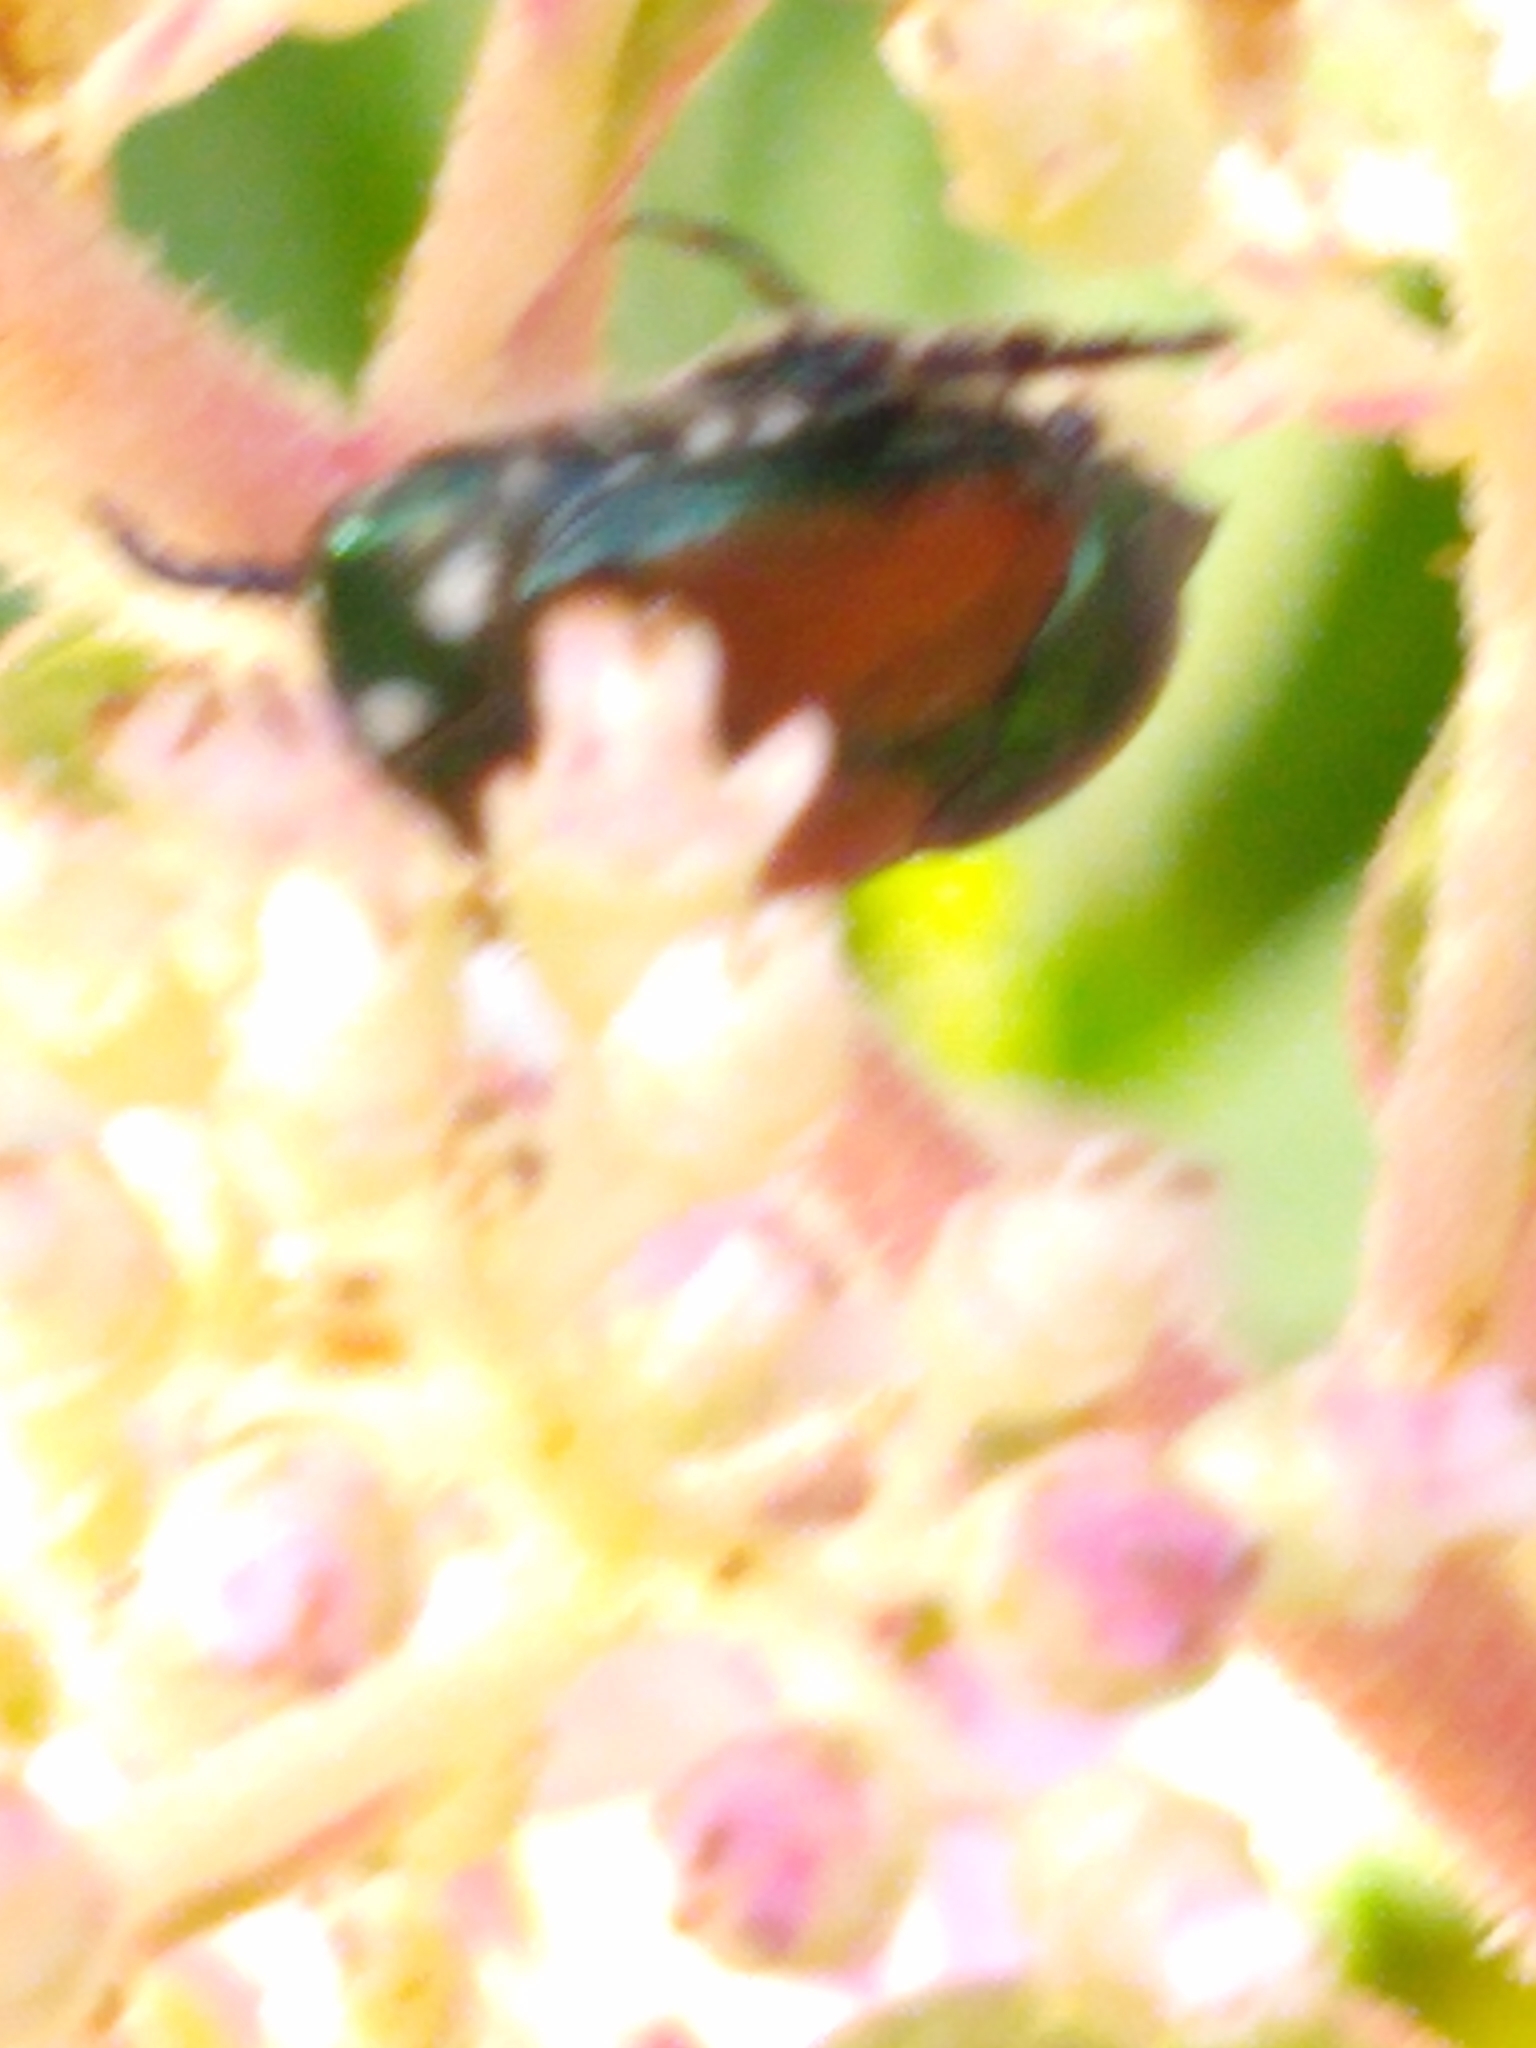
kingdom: Animalia
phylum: Arthropoda
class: Insecta
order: Coleoptera
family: Scarabaeidae
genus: Popillia
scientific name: Popillia japonica
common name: Japanese beetle
